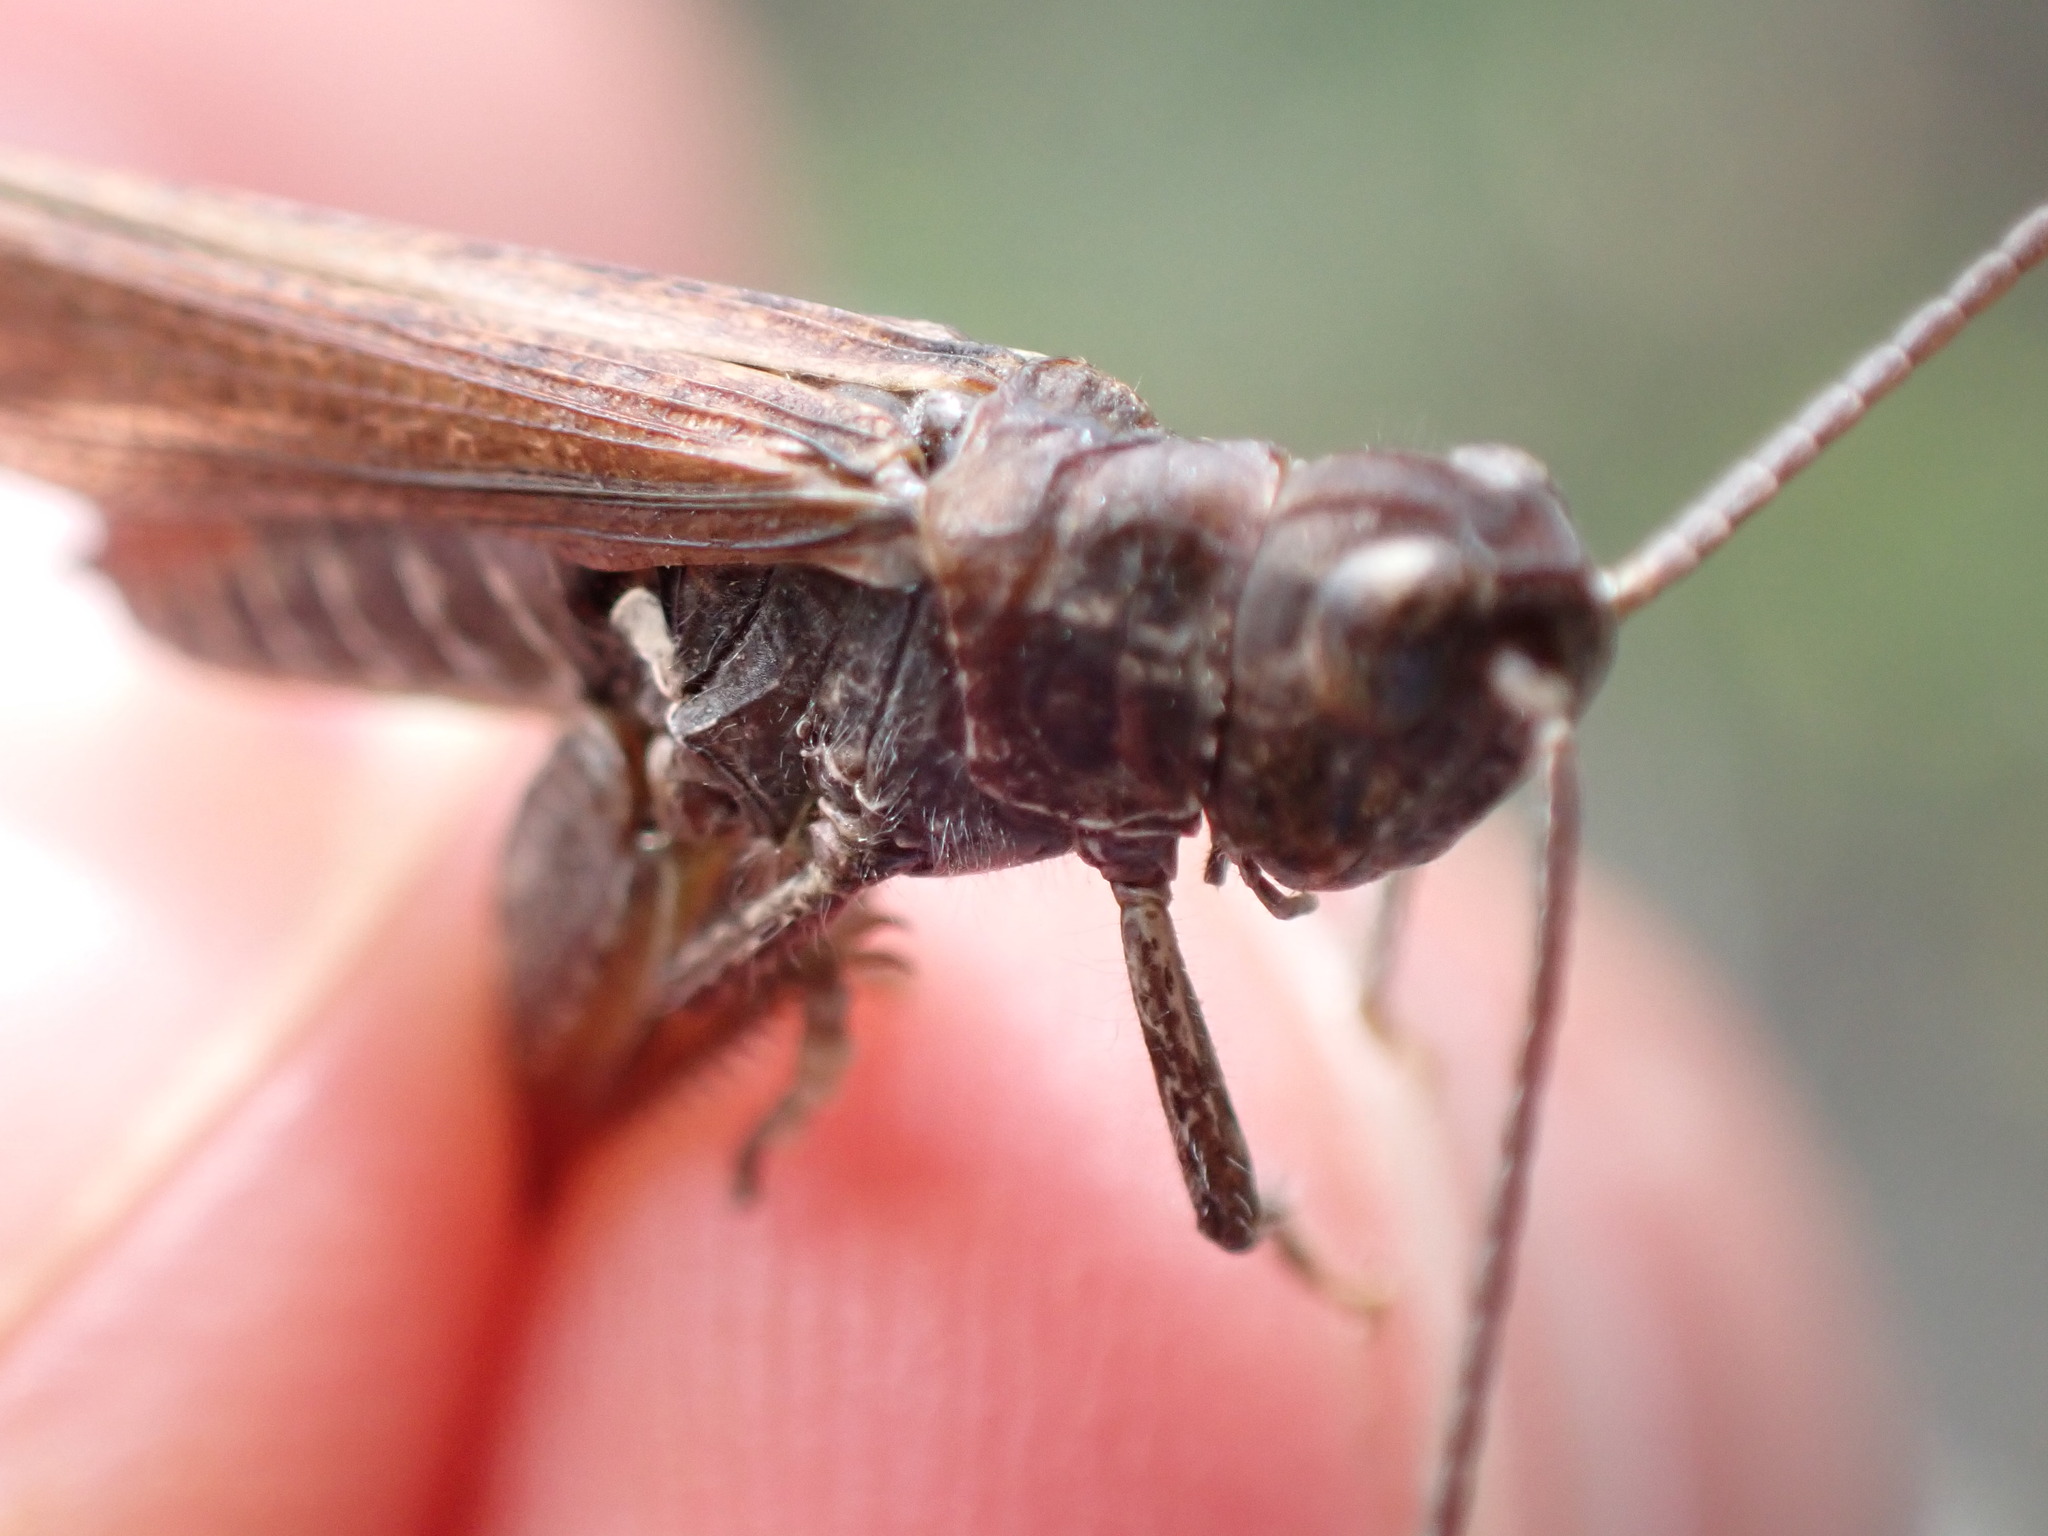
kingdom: Animalia
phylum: Arthropoda
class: Insecta
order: Orthoptera
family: Acrididae
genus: Chorthippus
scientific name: Chorthippus brunneus
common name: Field grasshopper
